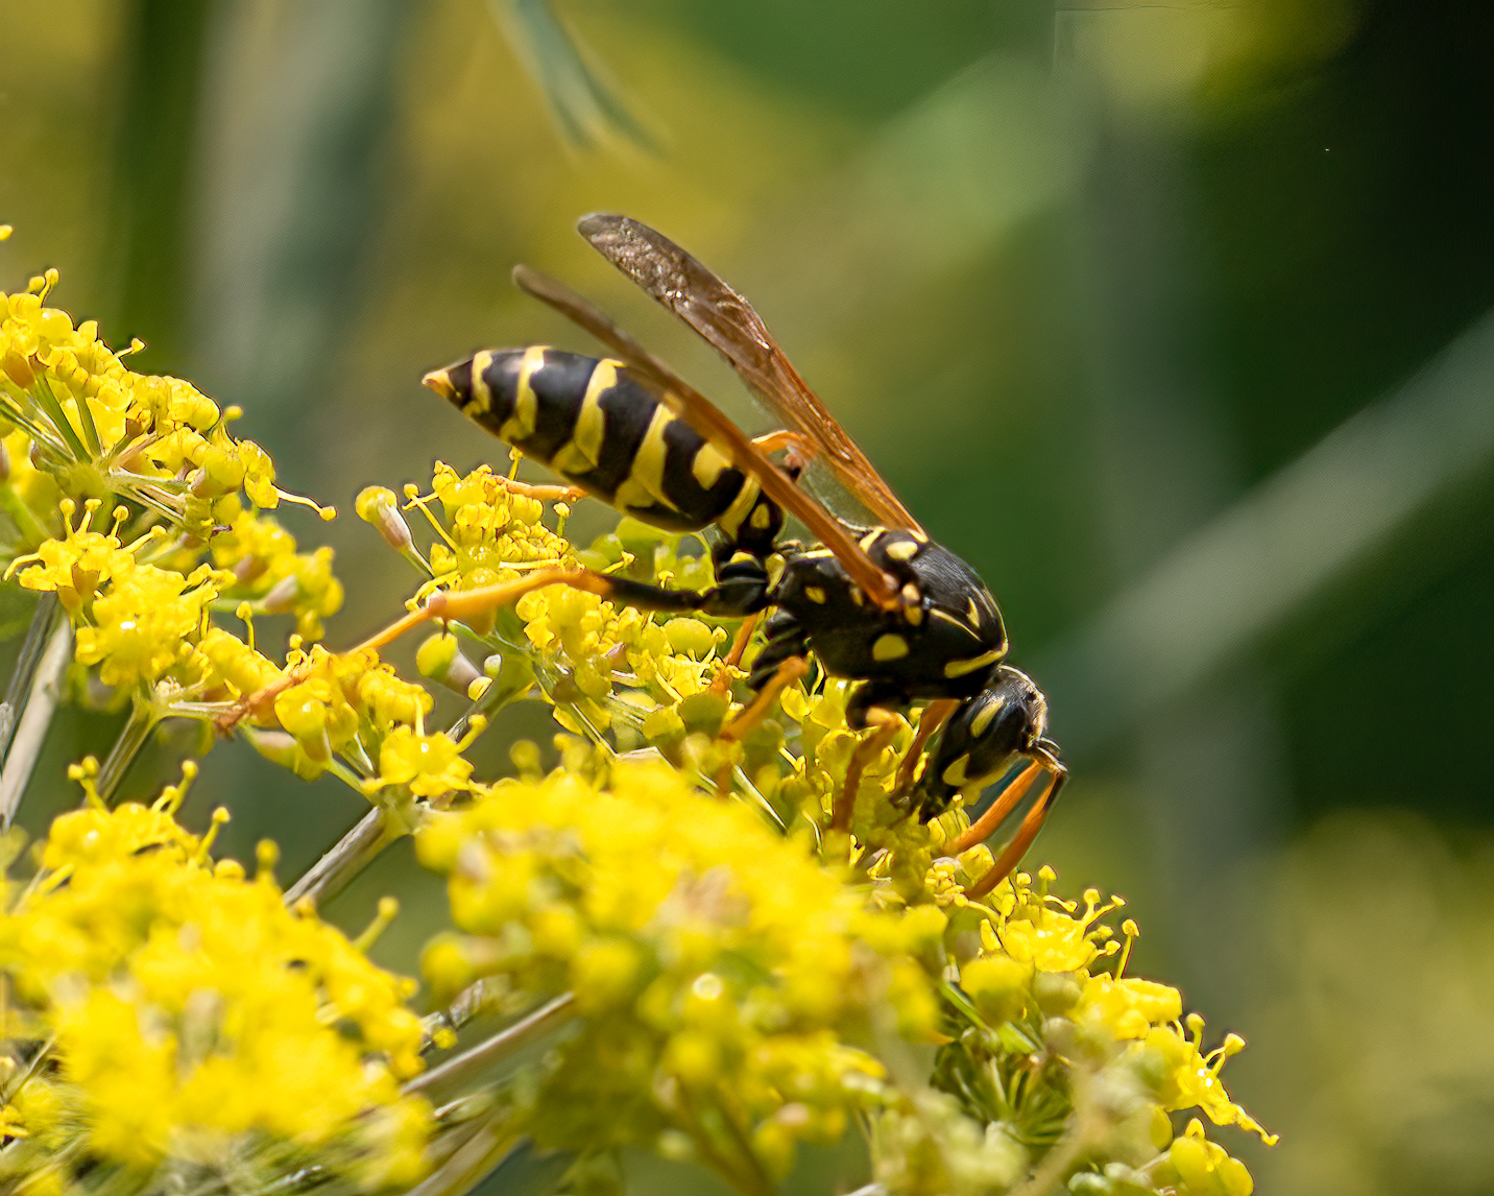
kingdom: Animalia
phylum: Arthropoda
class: Insecta
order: Hymenoptera
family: Eumenidae
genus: Polistes
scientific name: Polistes dominula
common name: Paper wasp
